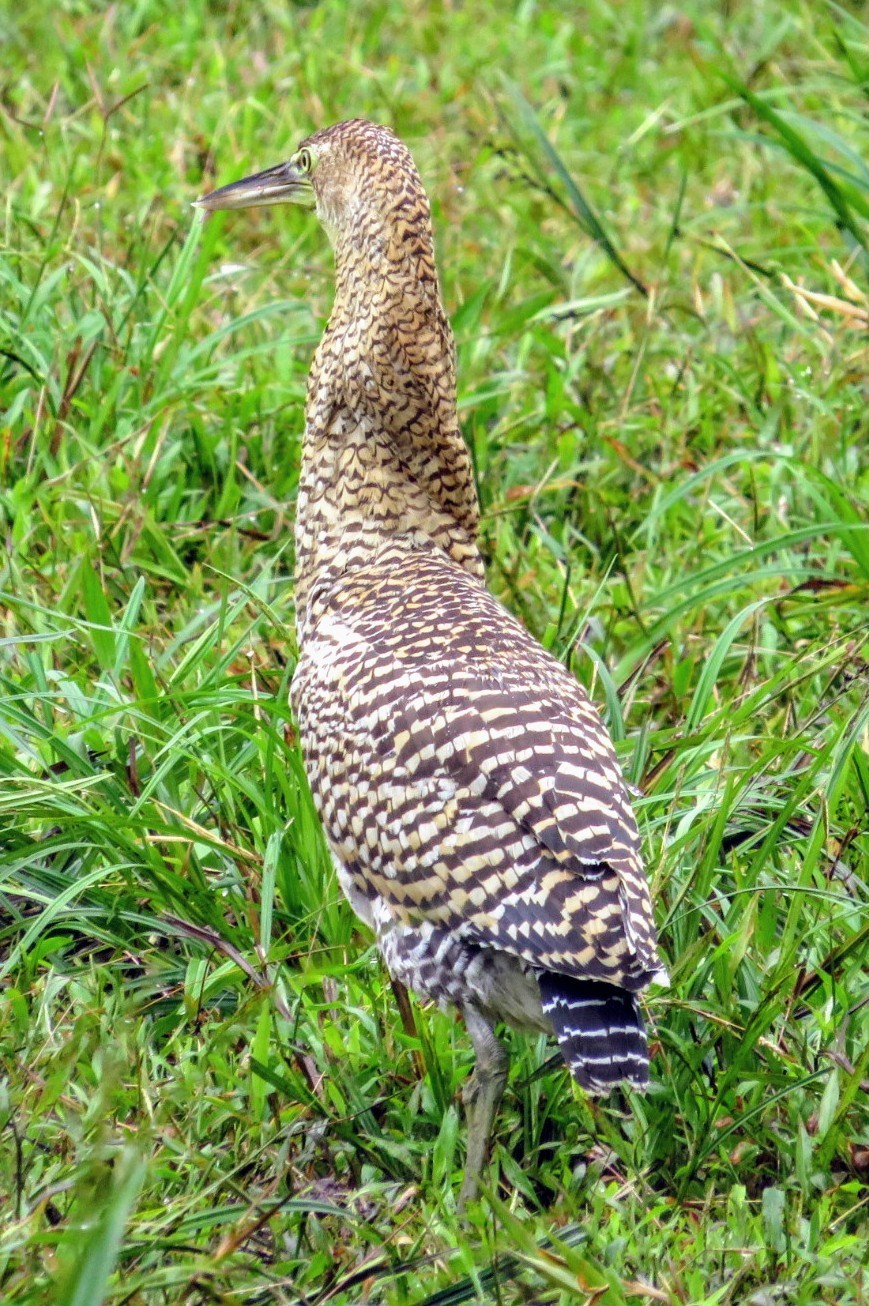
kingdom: Animalia
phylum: Chordata
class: Aves
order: Pelecaniformes
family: Ardeidae
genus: Tigrisoma
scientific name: Tigrisoma mexicanum
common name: Bare-throated tiger-heron
